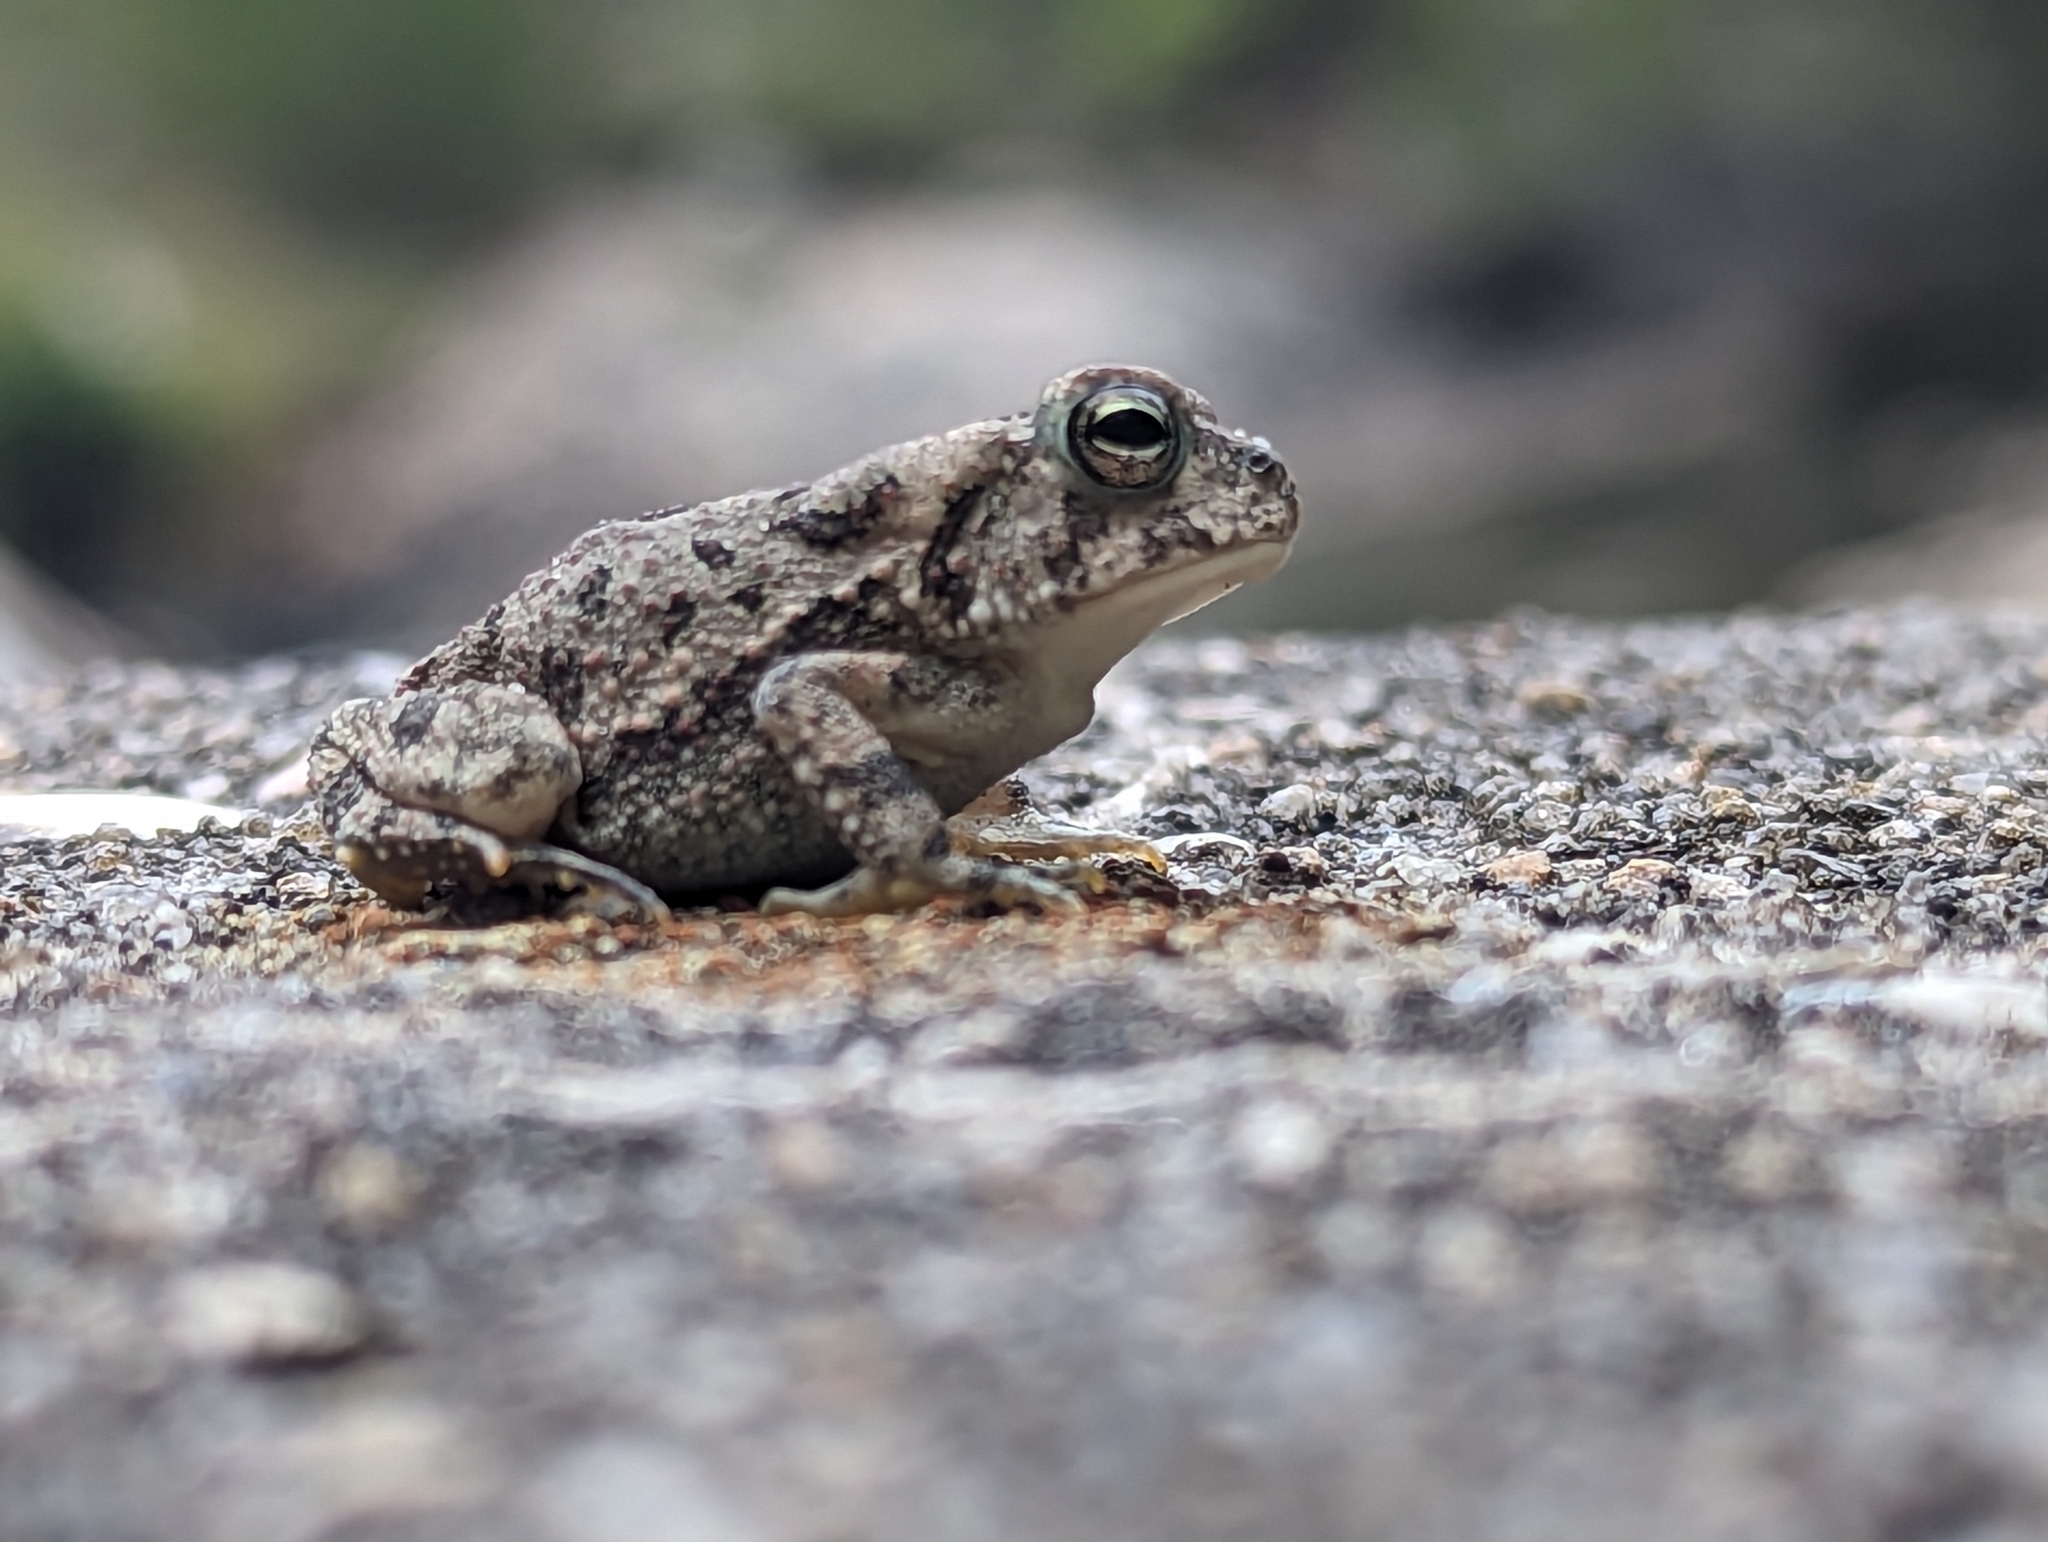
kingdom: Animalia
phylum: Chordata
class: Amphibia
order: Anura
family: Bufonidae
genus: Anaxyrus
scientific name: Anaxyrus fowleri
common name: Fowler's toad
